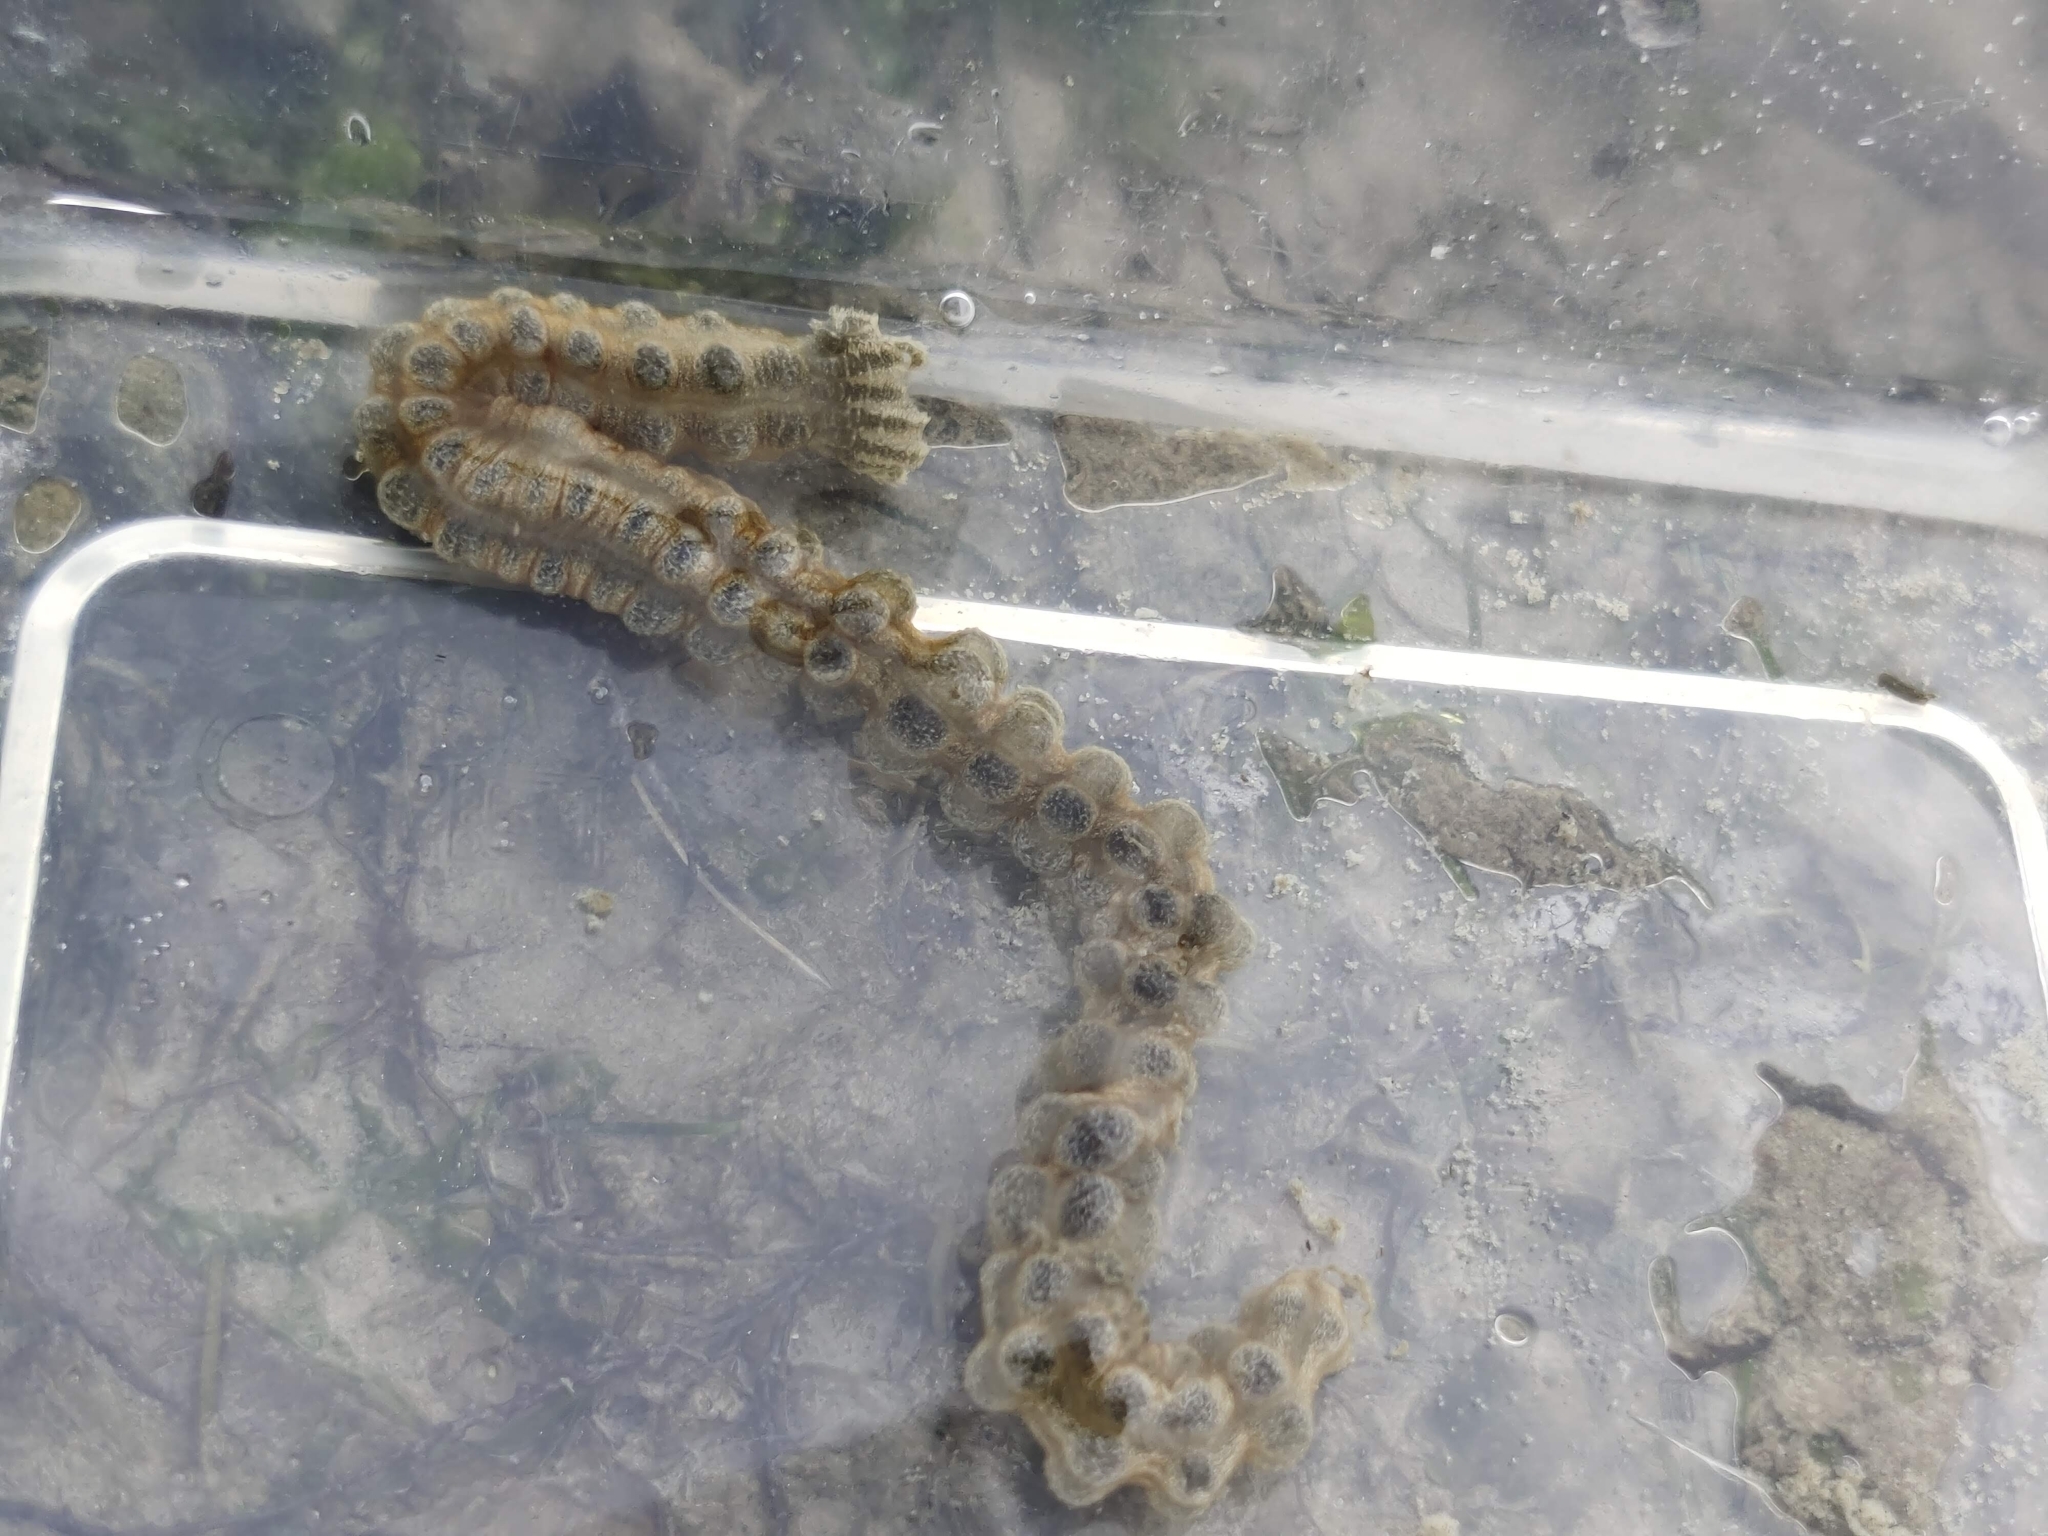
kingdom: Animalia
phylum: Echinodermata
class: Holothuroidea
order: Apodida
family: Synaptidae
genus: Synapta
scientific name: Synapta maculata
